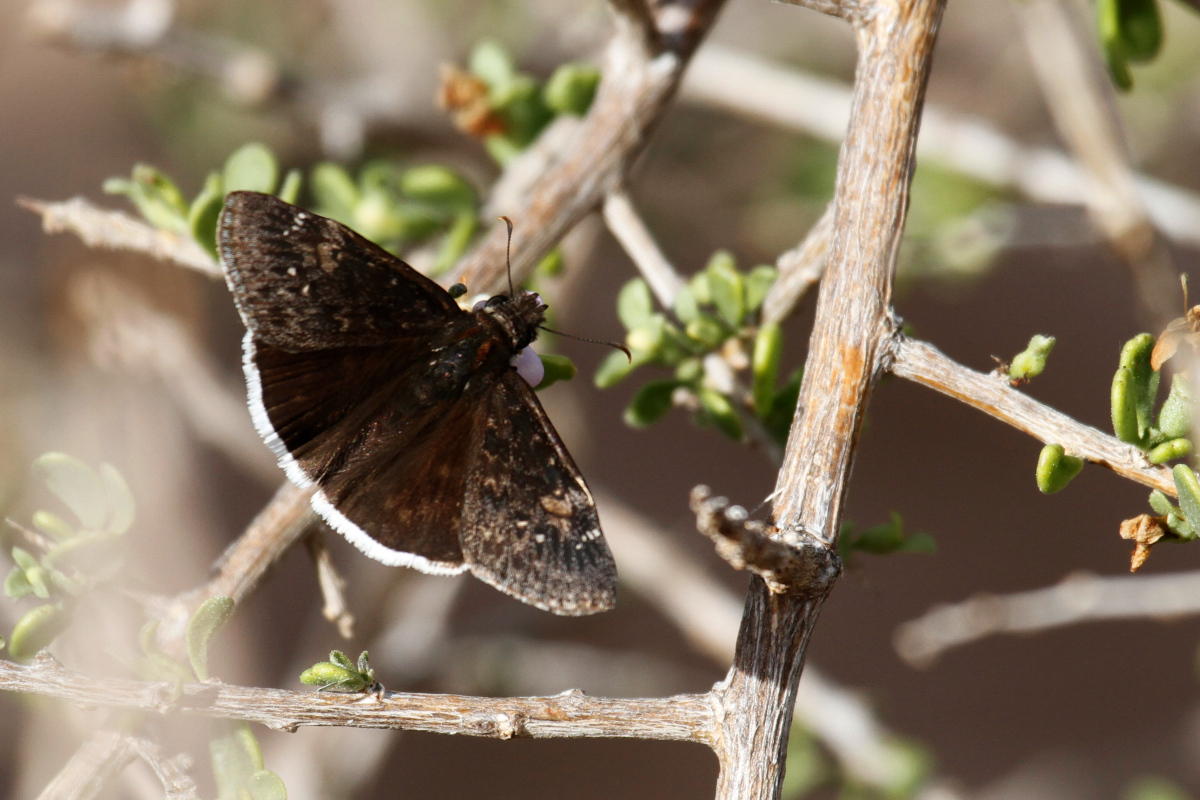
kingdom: Animalia
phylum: Arthropoda
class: Insecta
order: Lepidoptera
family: Hesperiidae
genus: Erynnis
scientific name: Erynnis funeralis
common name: Funereal duskywing
